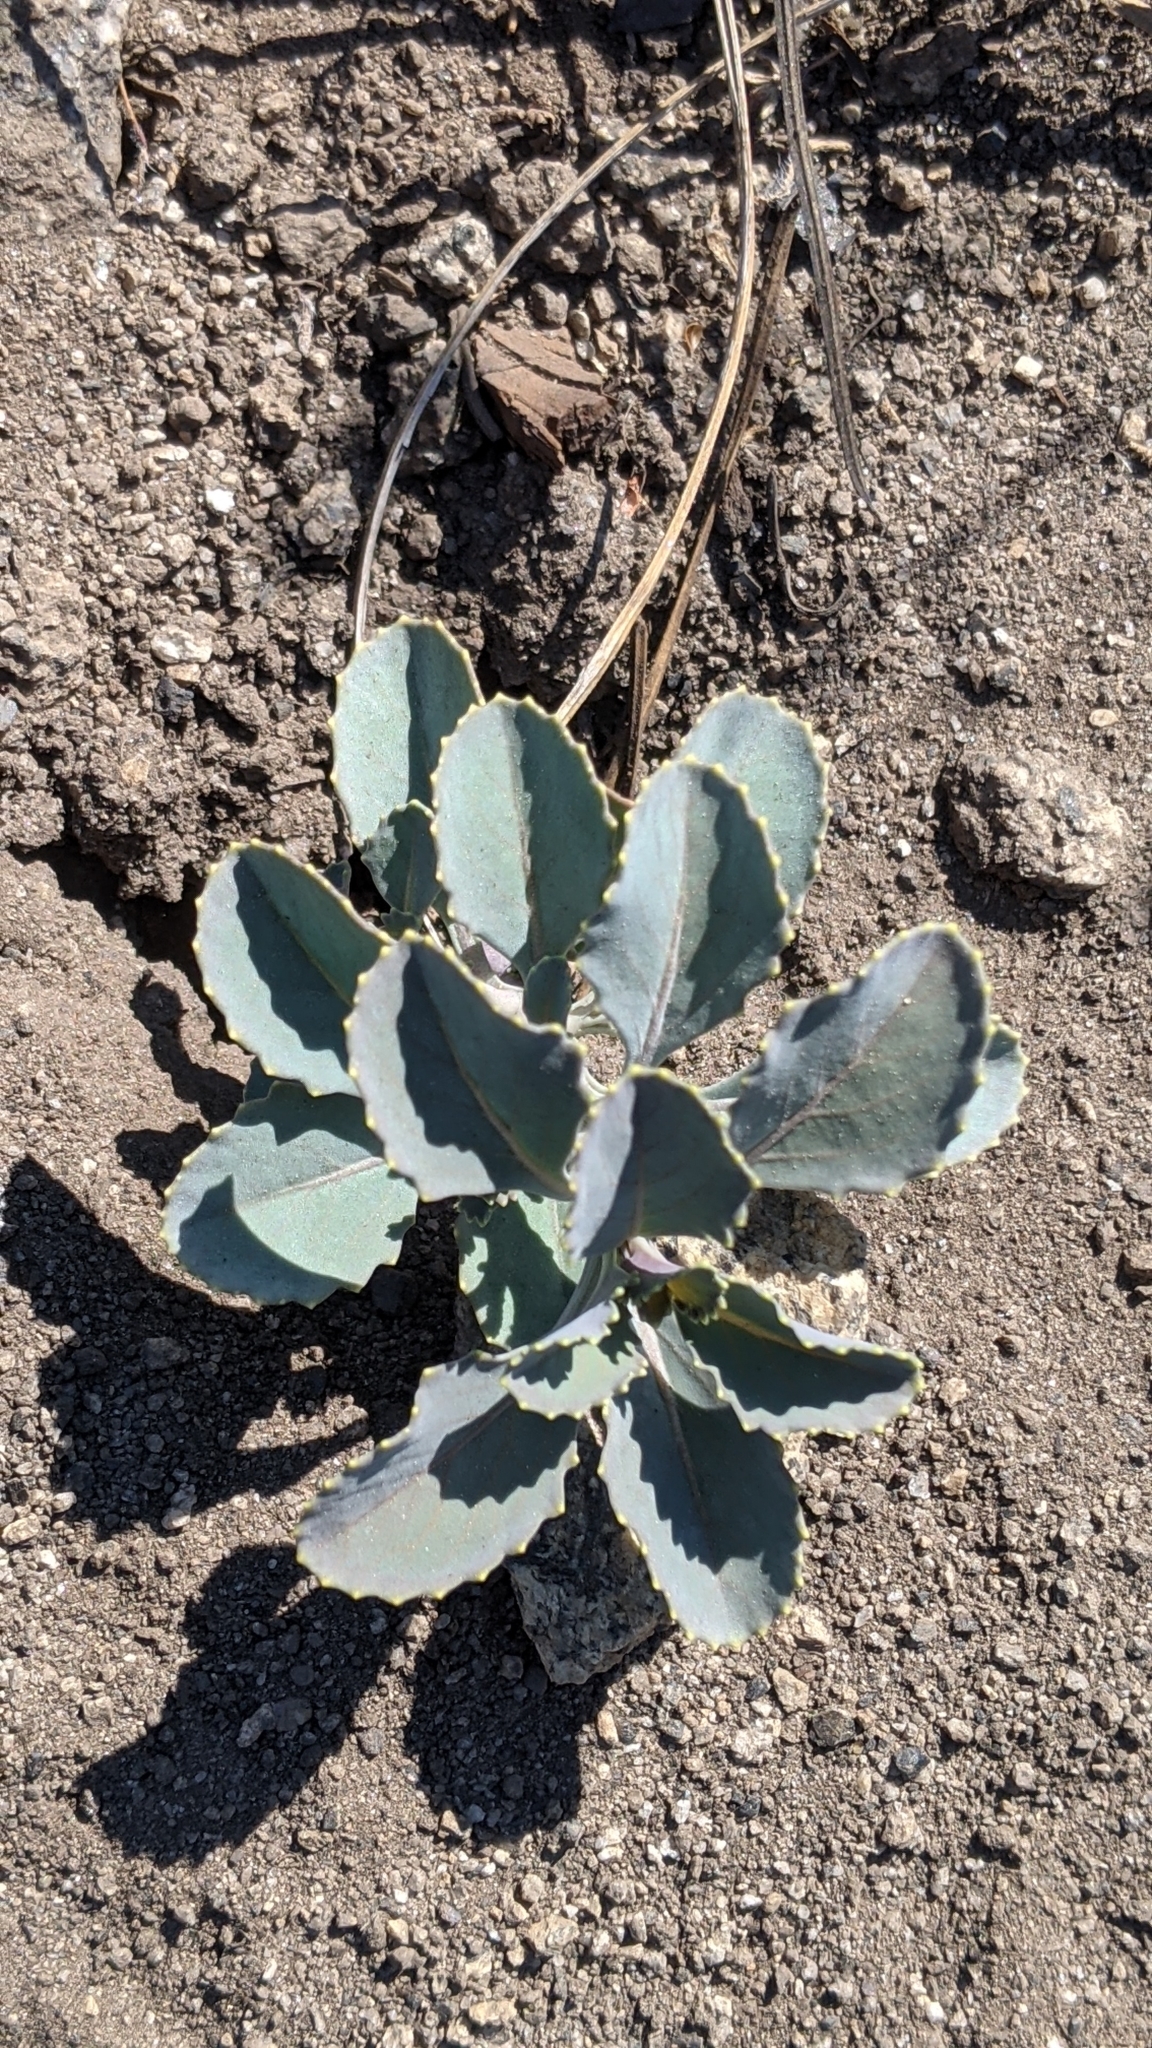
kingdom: Plantae
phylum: Tracheophyta
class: Magnoliopsida
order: Brassicales
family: Brassicaceae
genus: Streptanthus
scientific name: Streptanthus tortuosus
